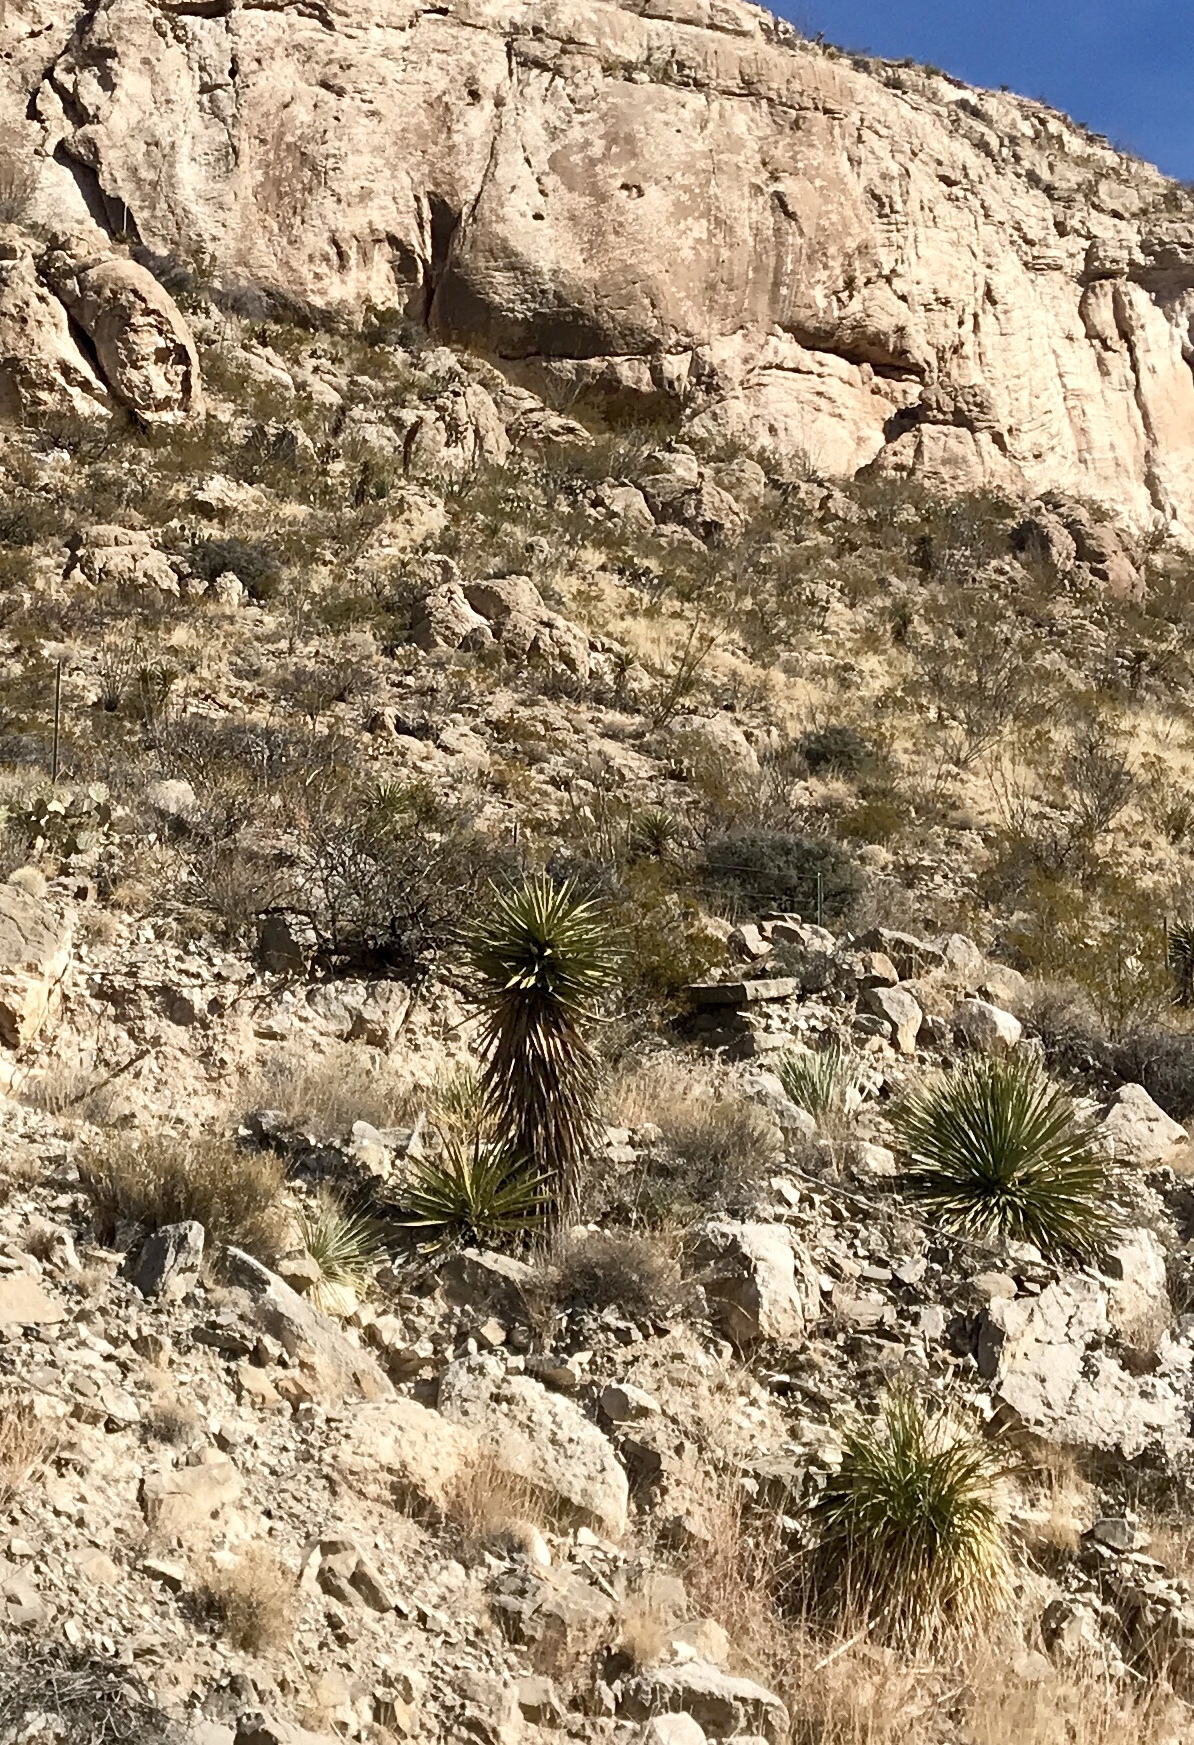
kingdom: Plantae
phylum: Tracheophyta
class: Liliopsida
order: Asparagales
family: Asparagaceae
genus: Yucca
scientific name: Yucca treculiana
